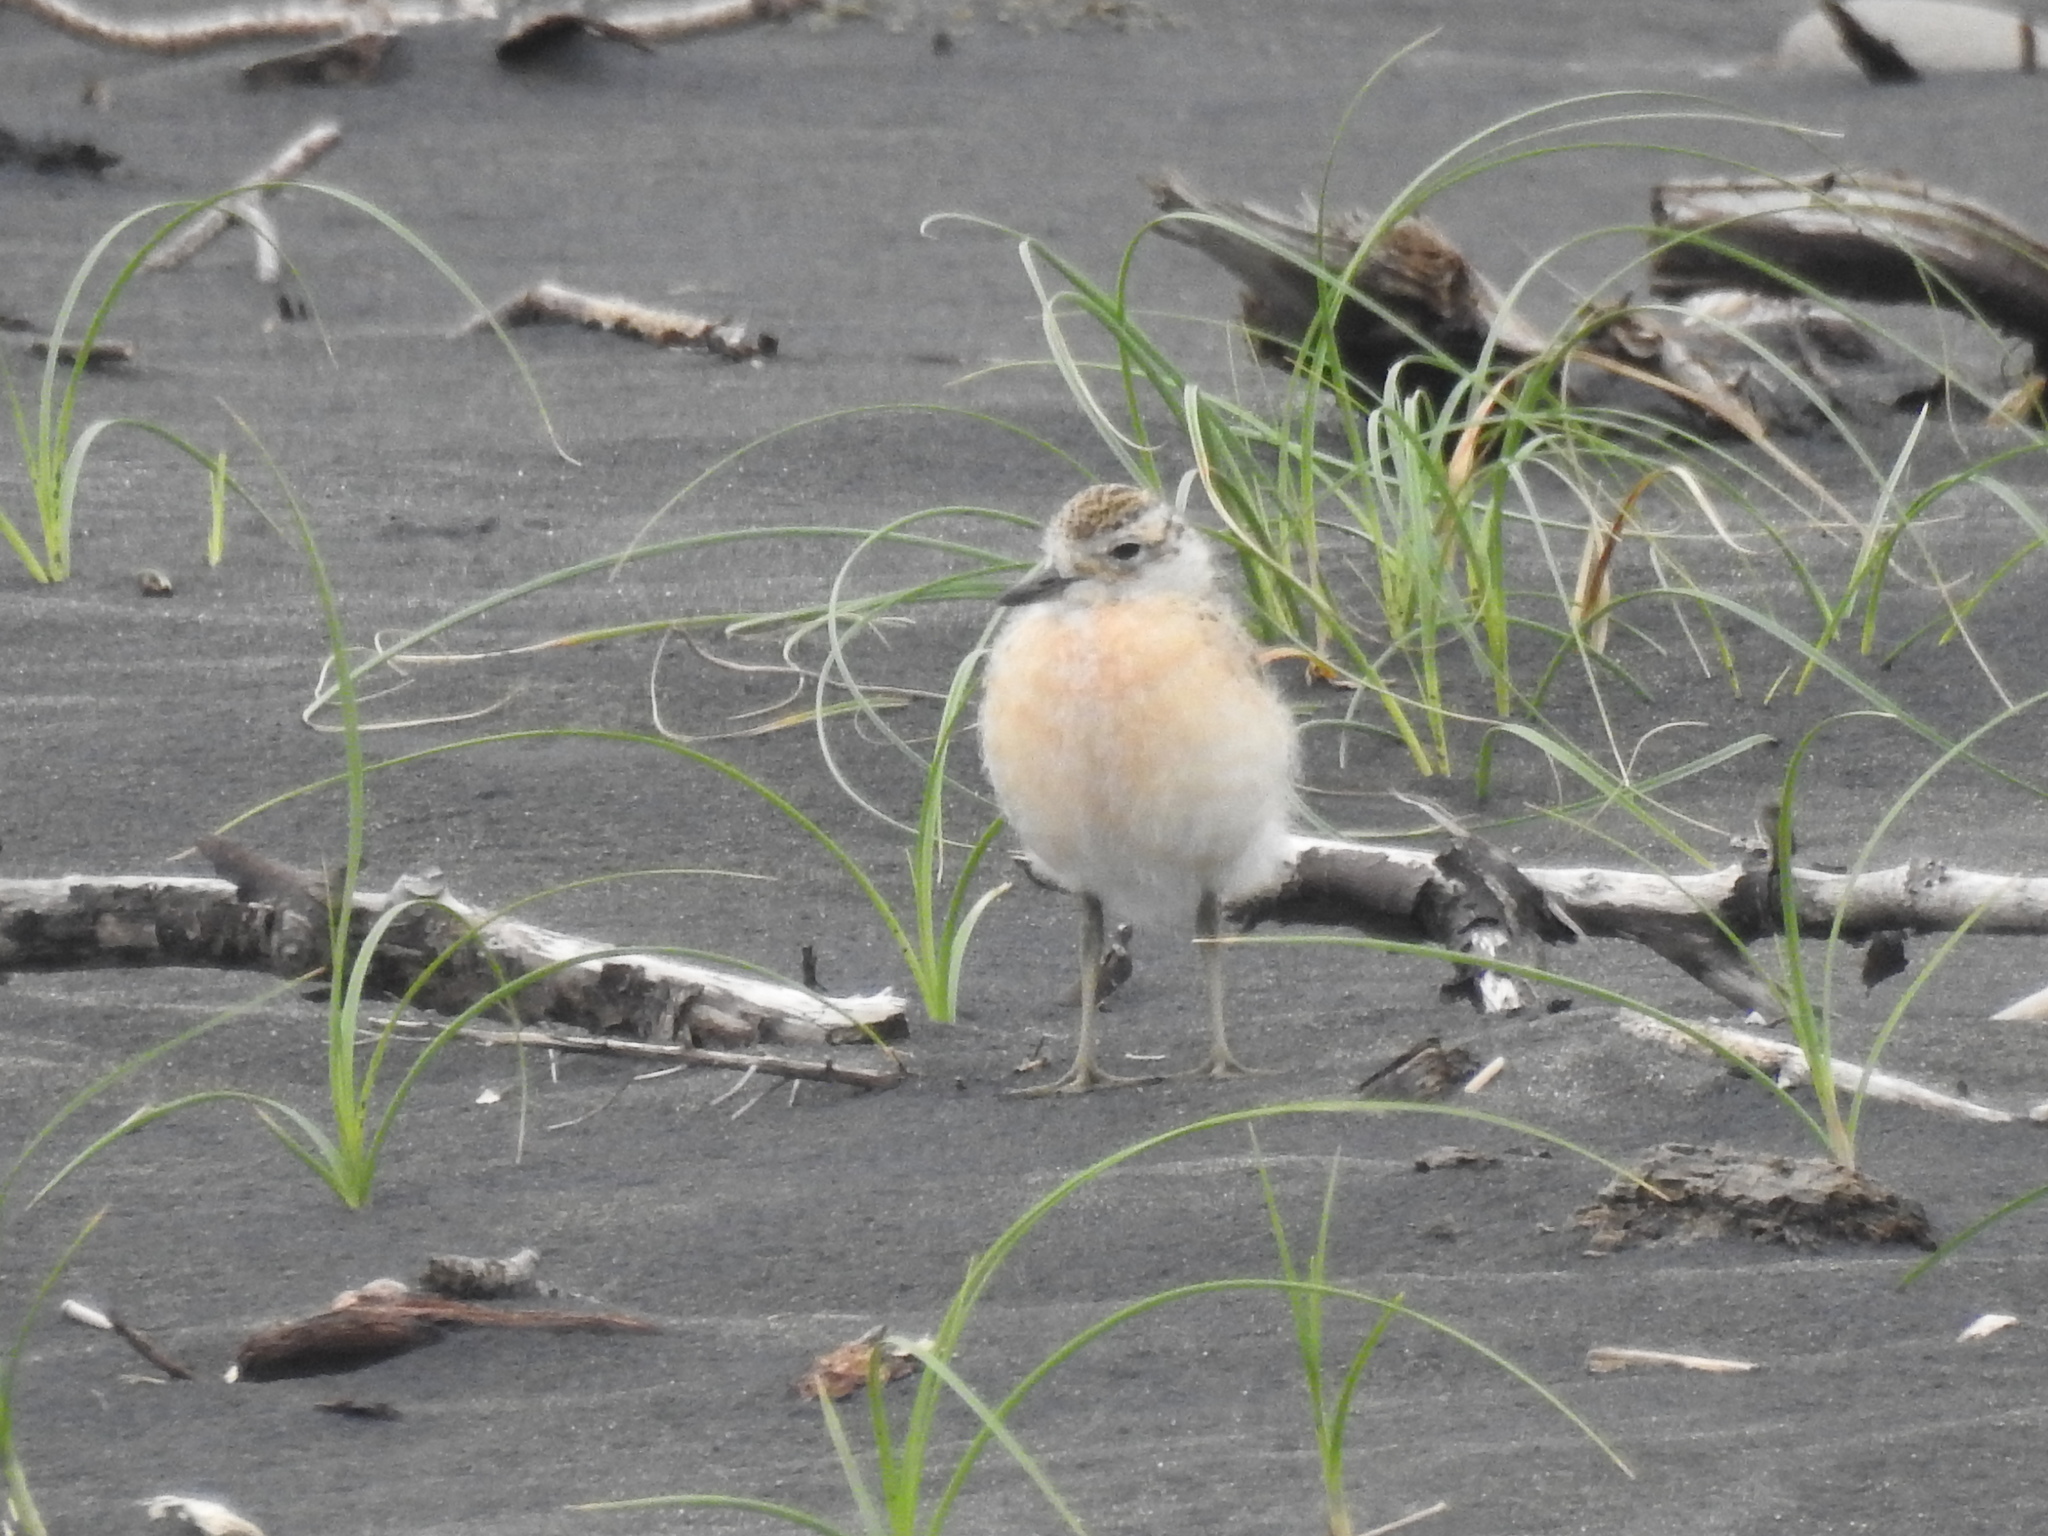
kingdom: Animalia
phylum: Chordata
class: Aves
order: Charadriiformes
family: Charadriidae
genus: Anarhynchus
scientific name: Anarhynchus
